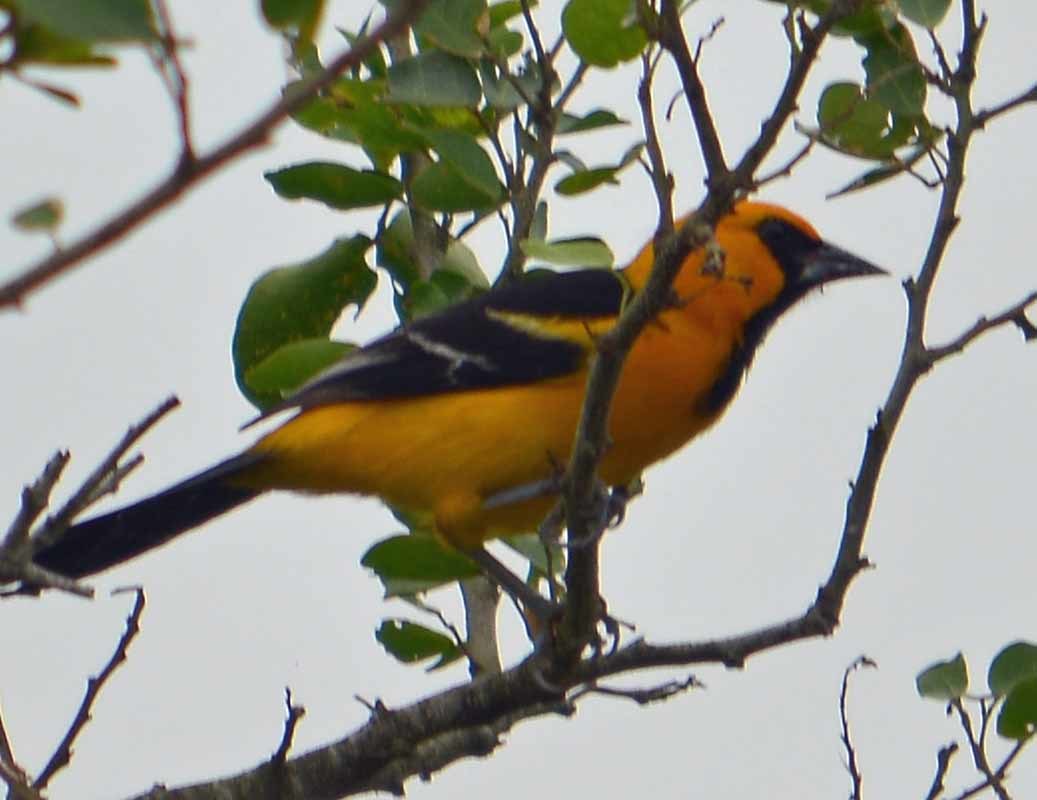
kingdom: Animalia
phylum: Chordata
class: Aves
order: Passeriformes
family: Icteridae
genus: Icterus
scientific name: Icterus gularis
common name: Altamira oriole
